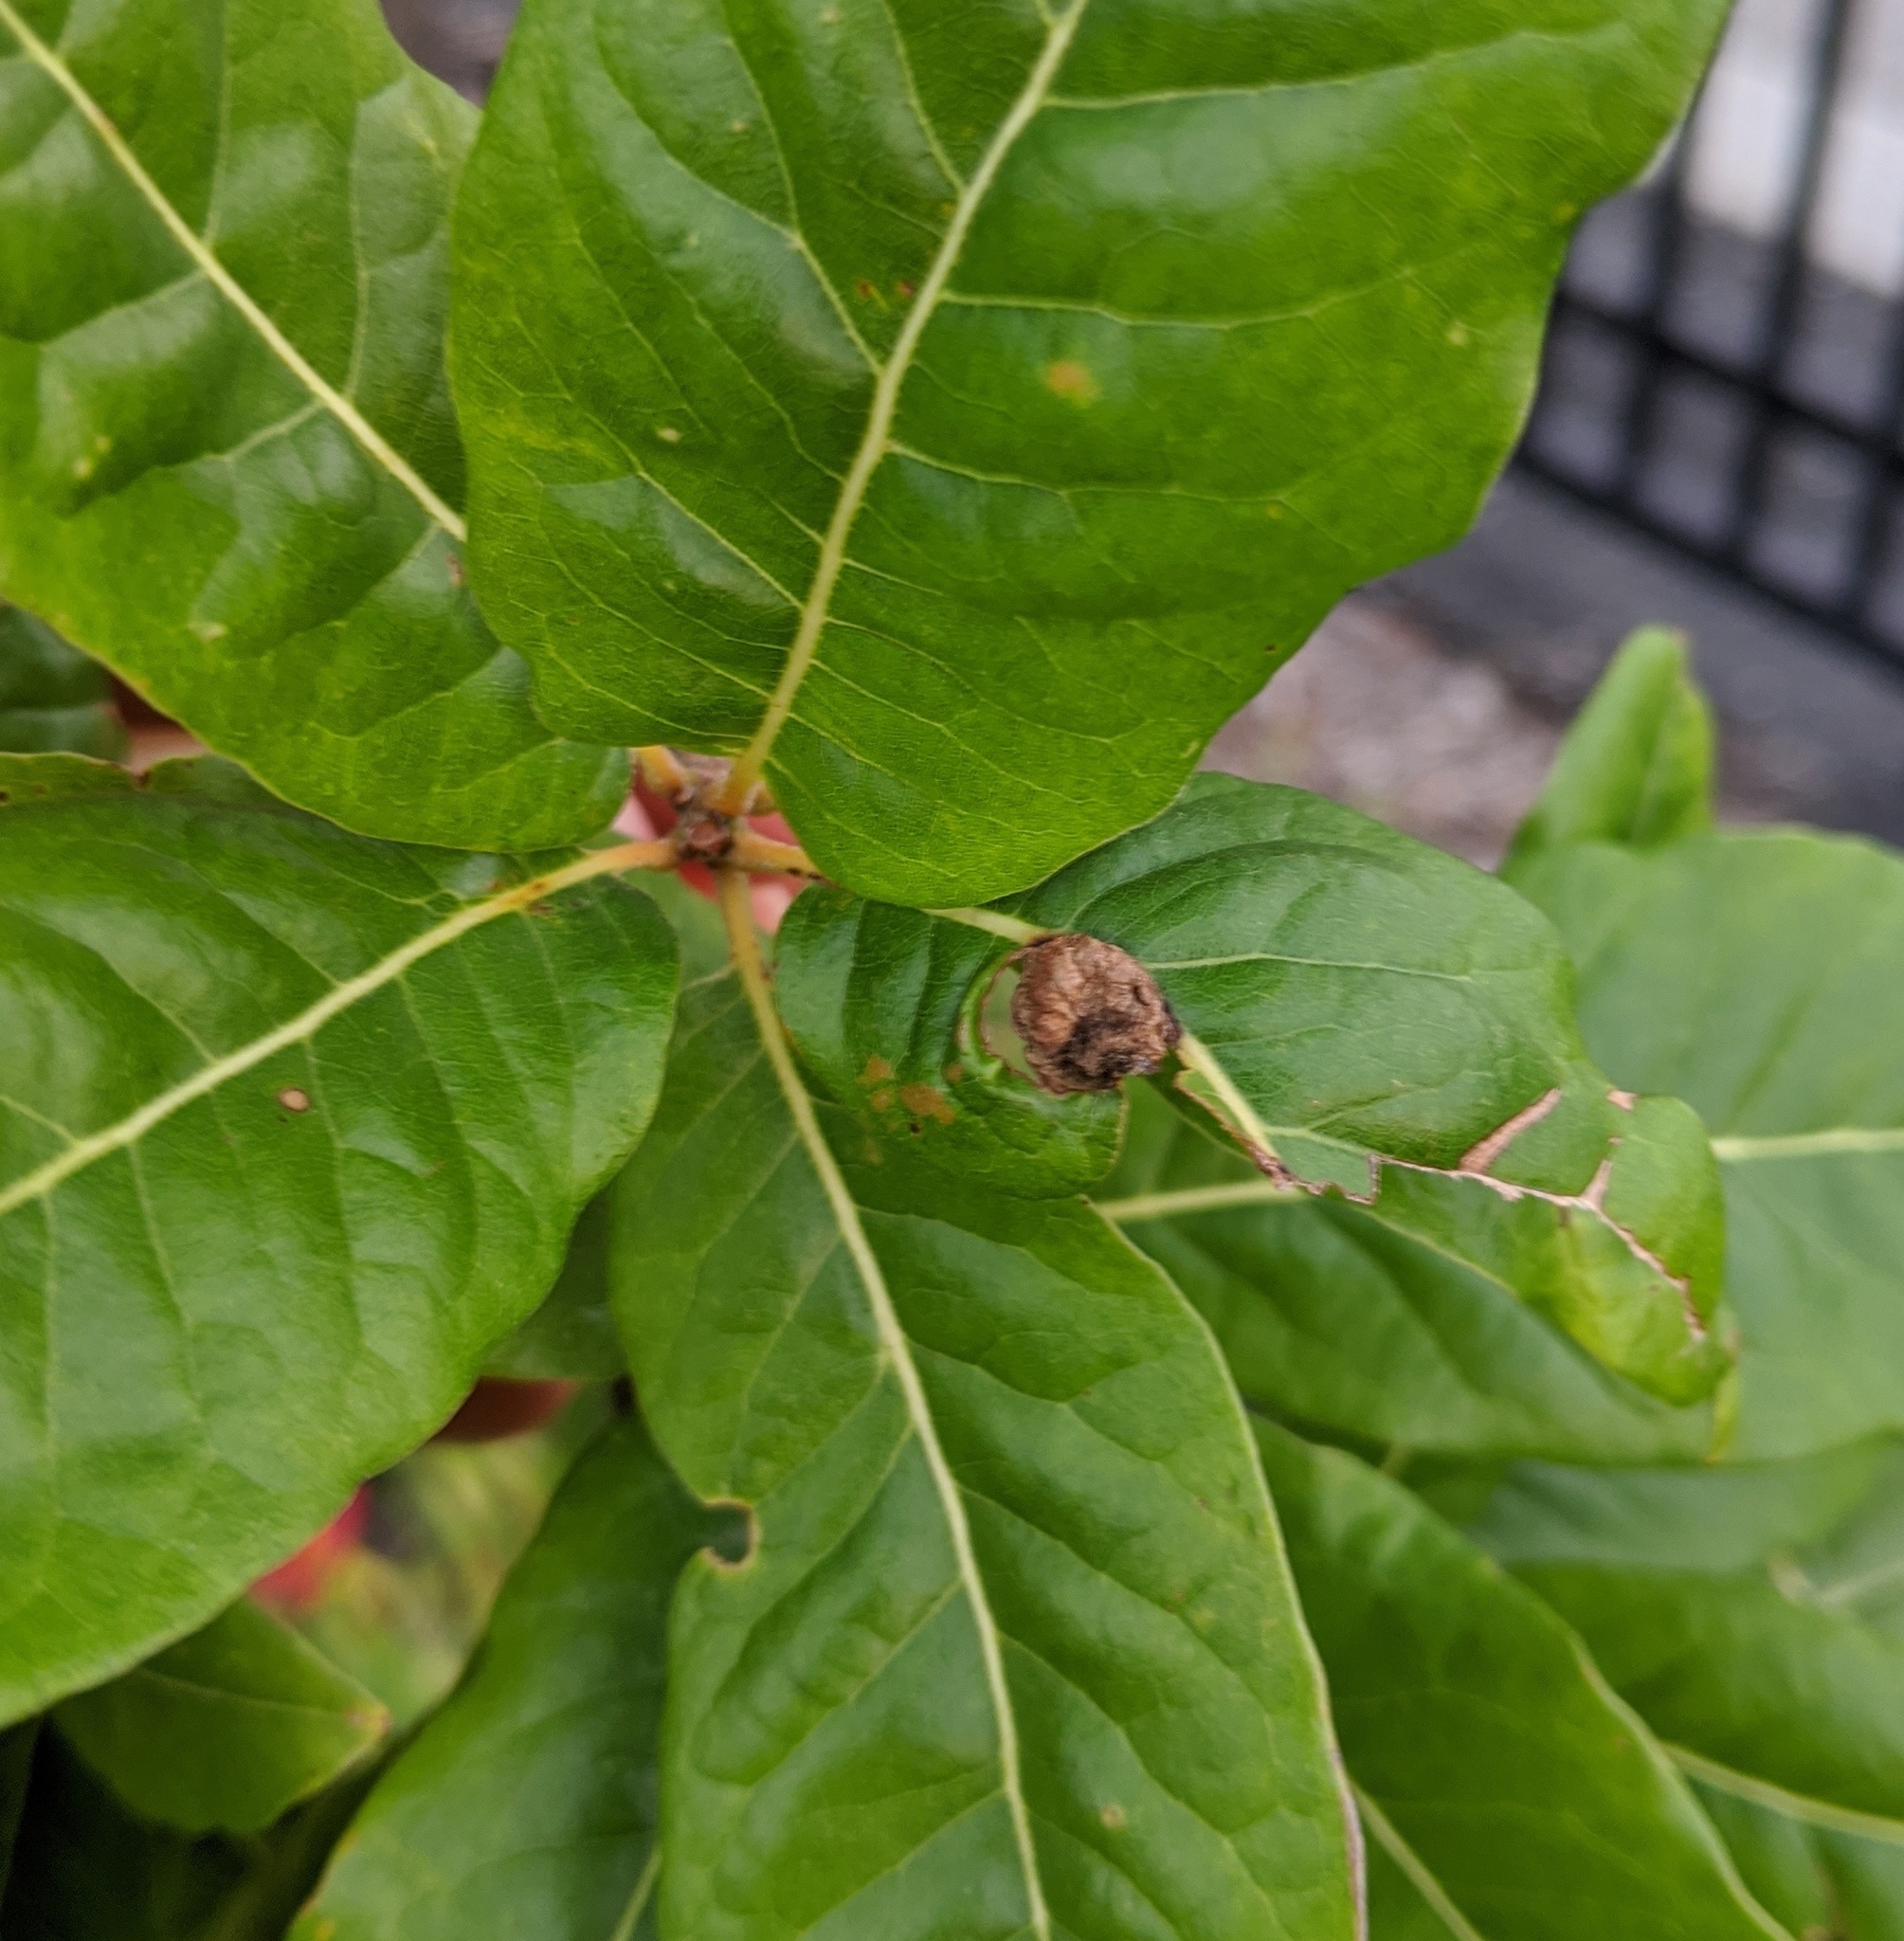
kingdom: Animalia
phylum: Arthropoda
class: Insecta
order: Hymenoptera
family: Cynipidae
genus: Dryocosmus
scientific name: Dryocosmus quercuspalustris
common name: Succulent oak gall wasp
